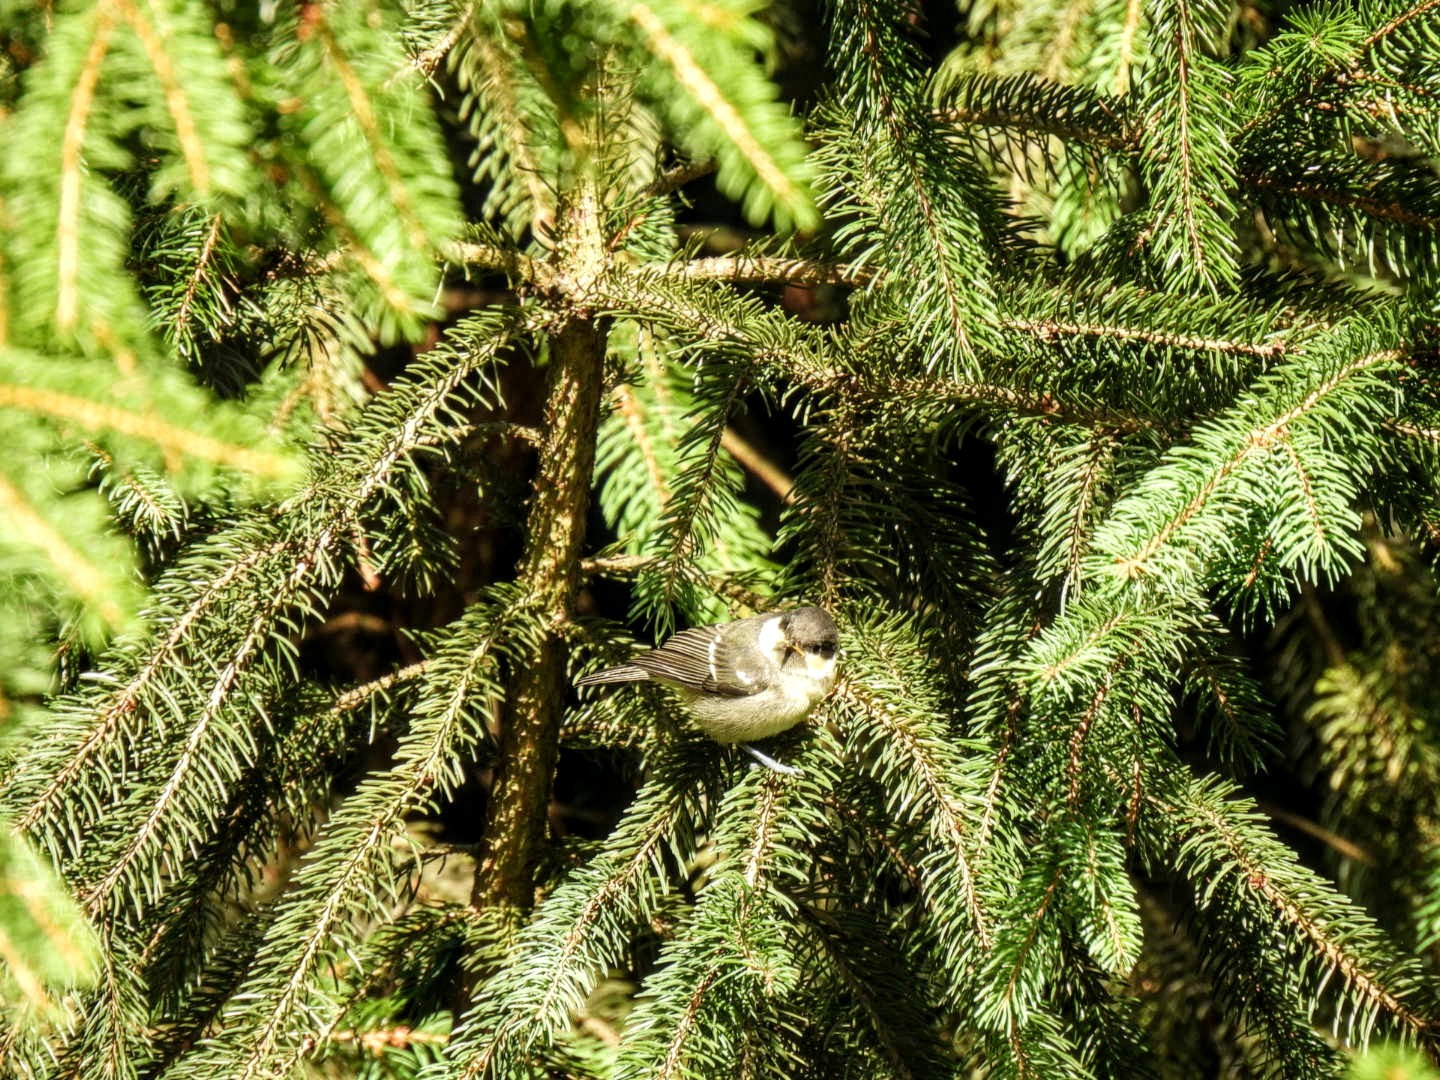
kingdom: Animalia
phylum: Chordata
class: Aves
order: Passeriformes
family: Paridae
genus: Periparus
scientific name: Periparus ater
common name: Coal tit
